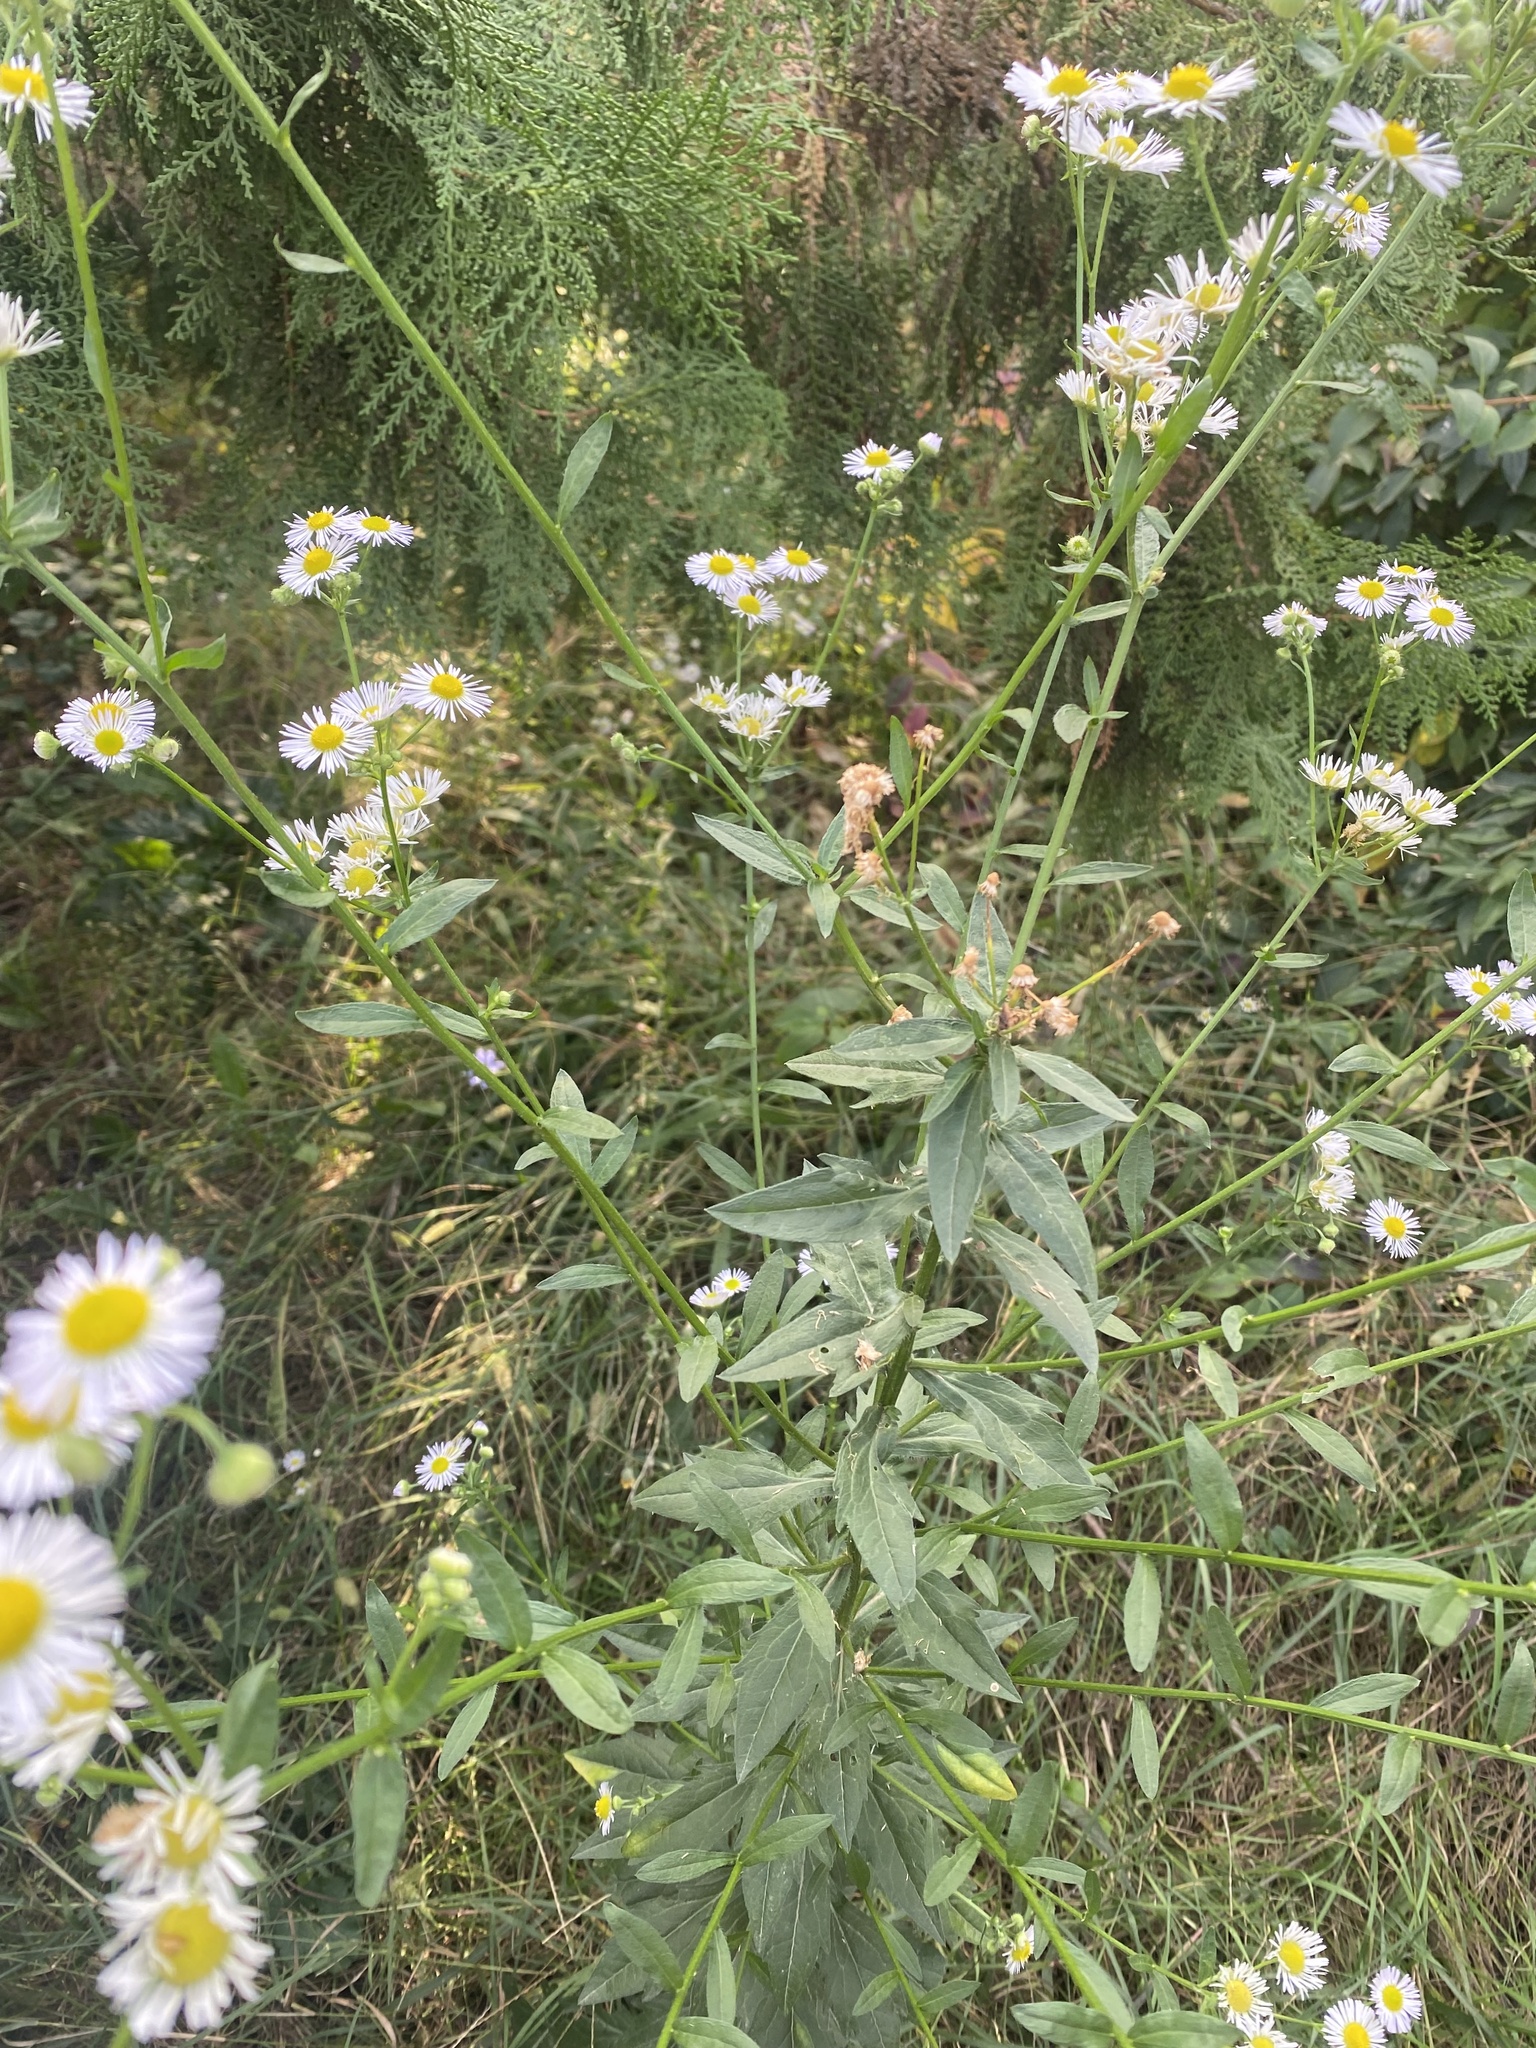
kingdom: Plantae
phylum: Tracheophyta
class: Magnoliopsida
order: Asterales
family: Asteraceae
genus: Erigeron
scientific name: Erigeron annuus
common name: Tall fleabane
